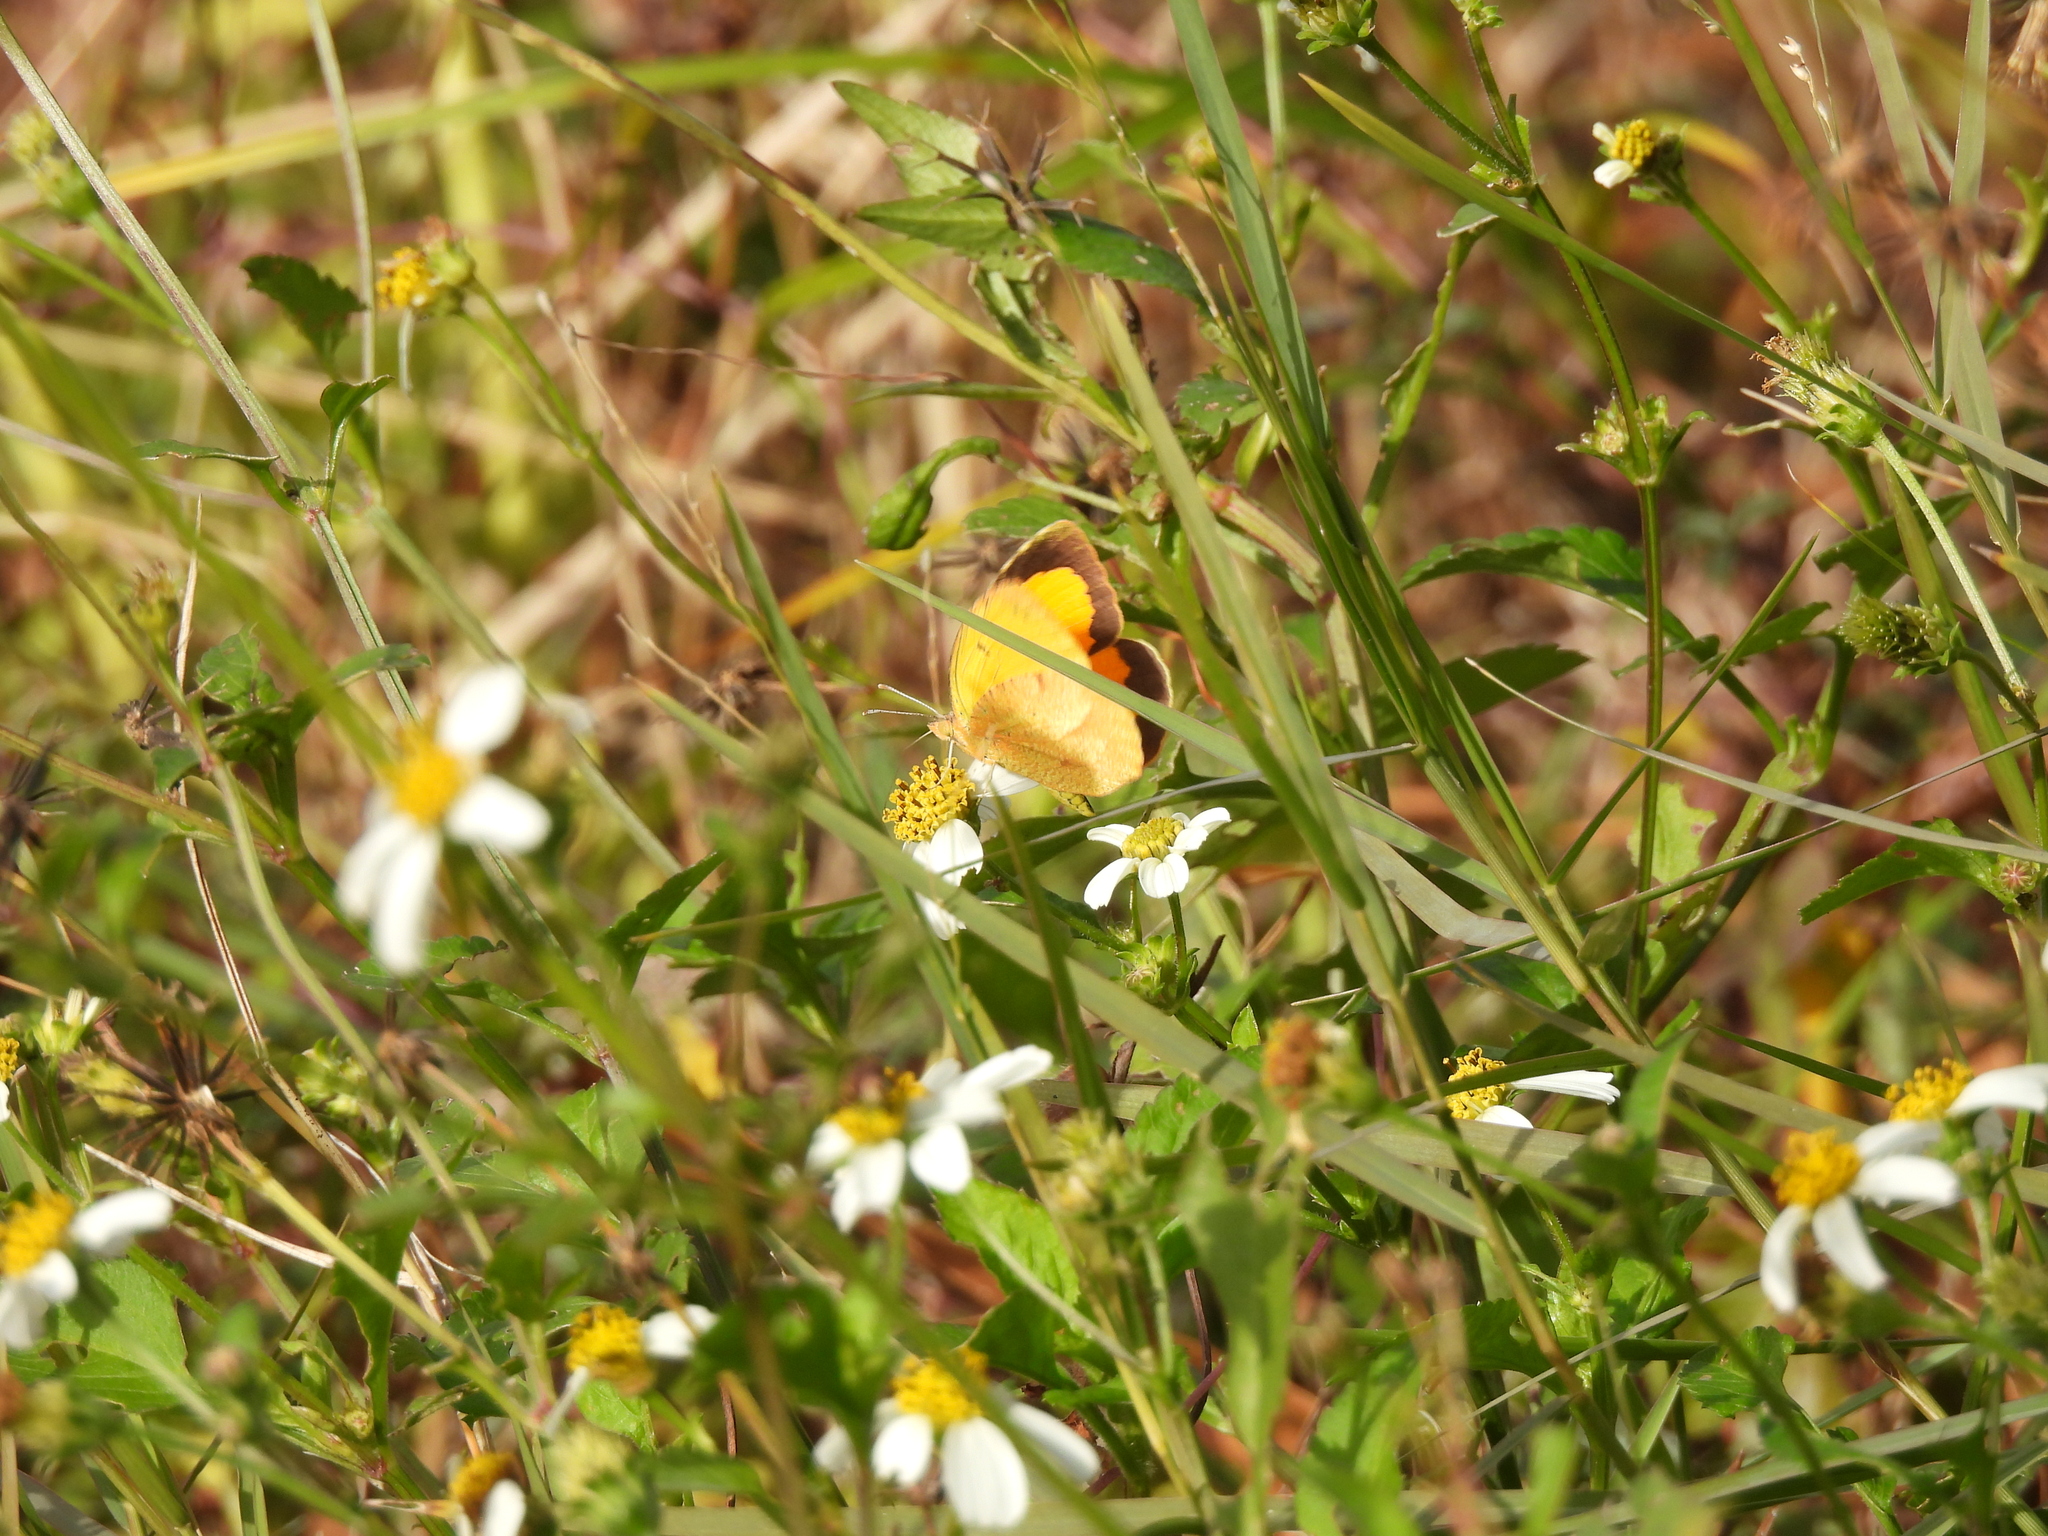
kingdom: Animalia
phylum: Arthropoda
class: Insecta
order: Lepidoptera
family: Pieridae
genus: Abaeis
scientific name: Abaeis nicippe
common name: Sleepy orange
